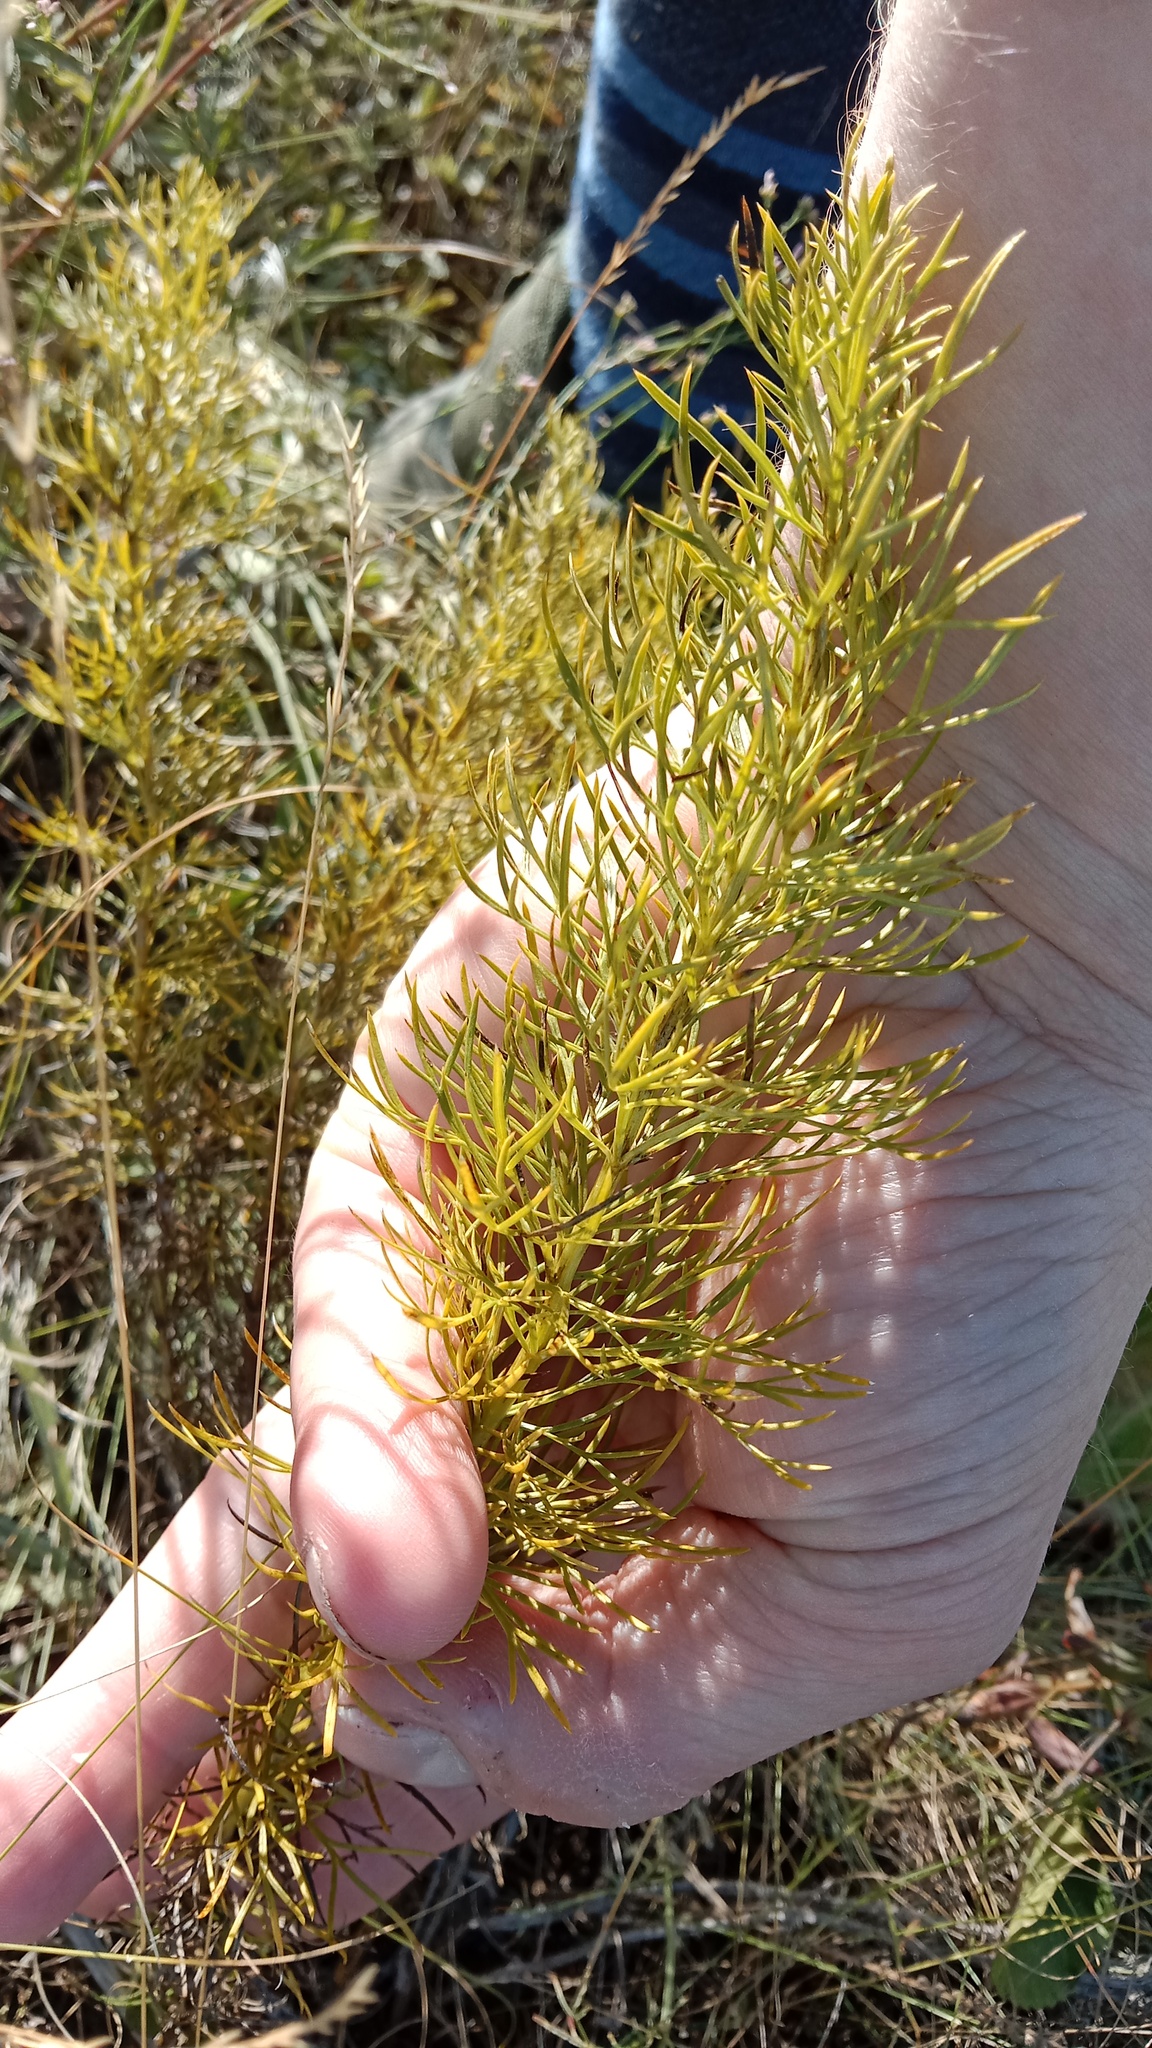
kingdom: Plantae
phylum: Tracheophyta
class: Magnoliopsida
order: Ranunculales
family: Ranunculaceae
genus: Adonis
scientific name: Adonis vernalis
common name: Yellow pheasants-eye
